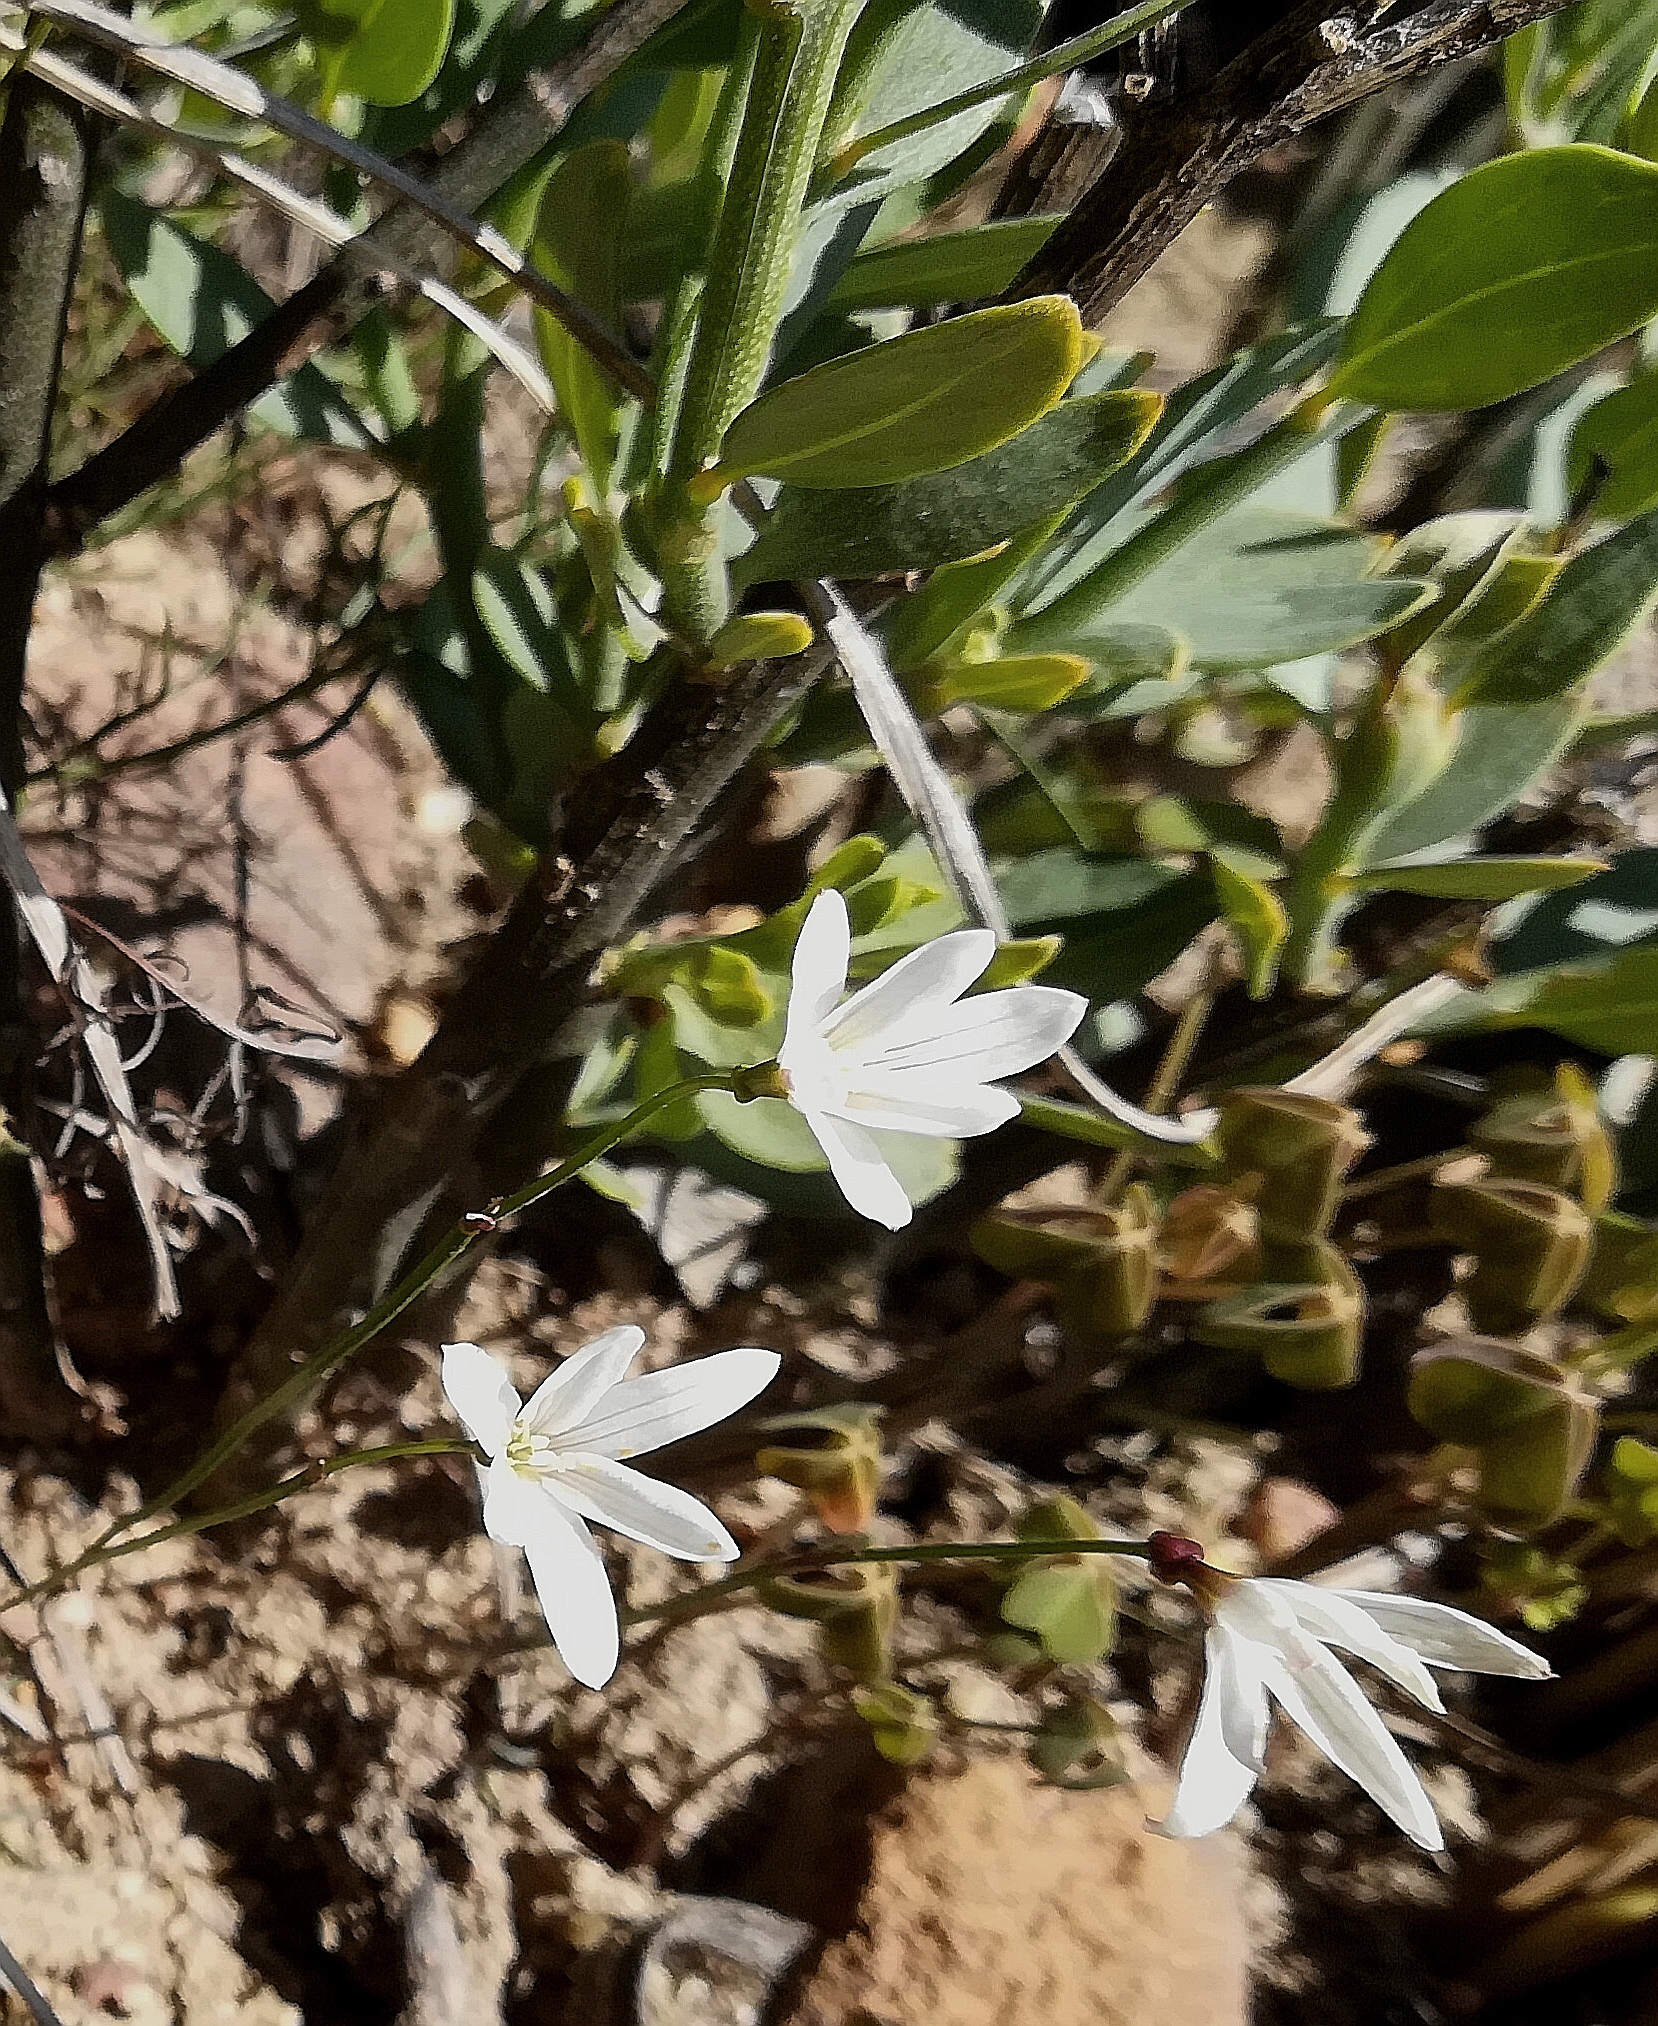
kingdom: Plantae
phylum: Tracheophyta
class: Liliopsida
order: Asparagales
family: Amaryllidaceae
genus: Strumaria
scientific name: Strumaria spiralis
